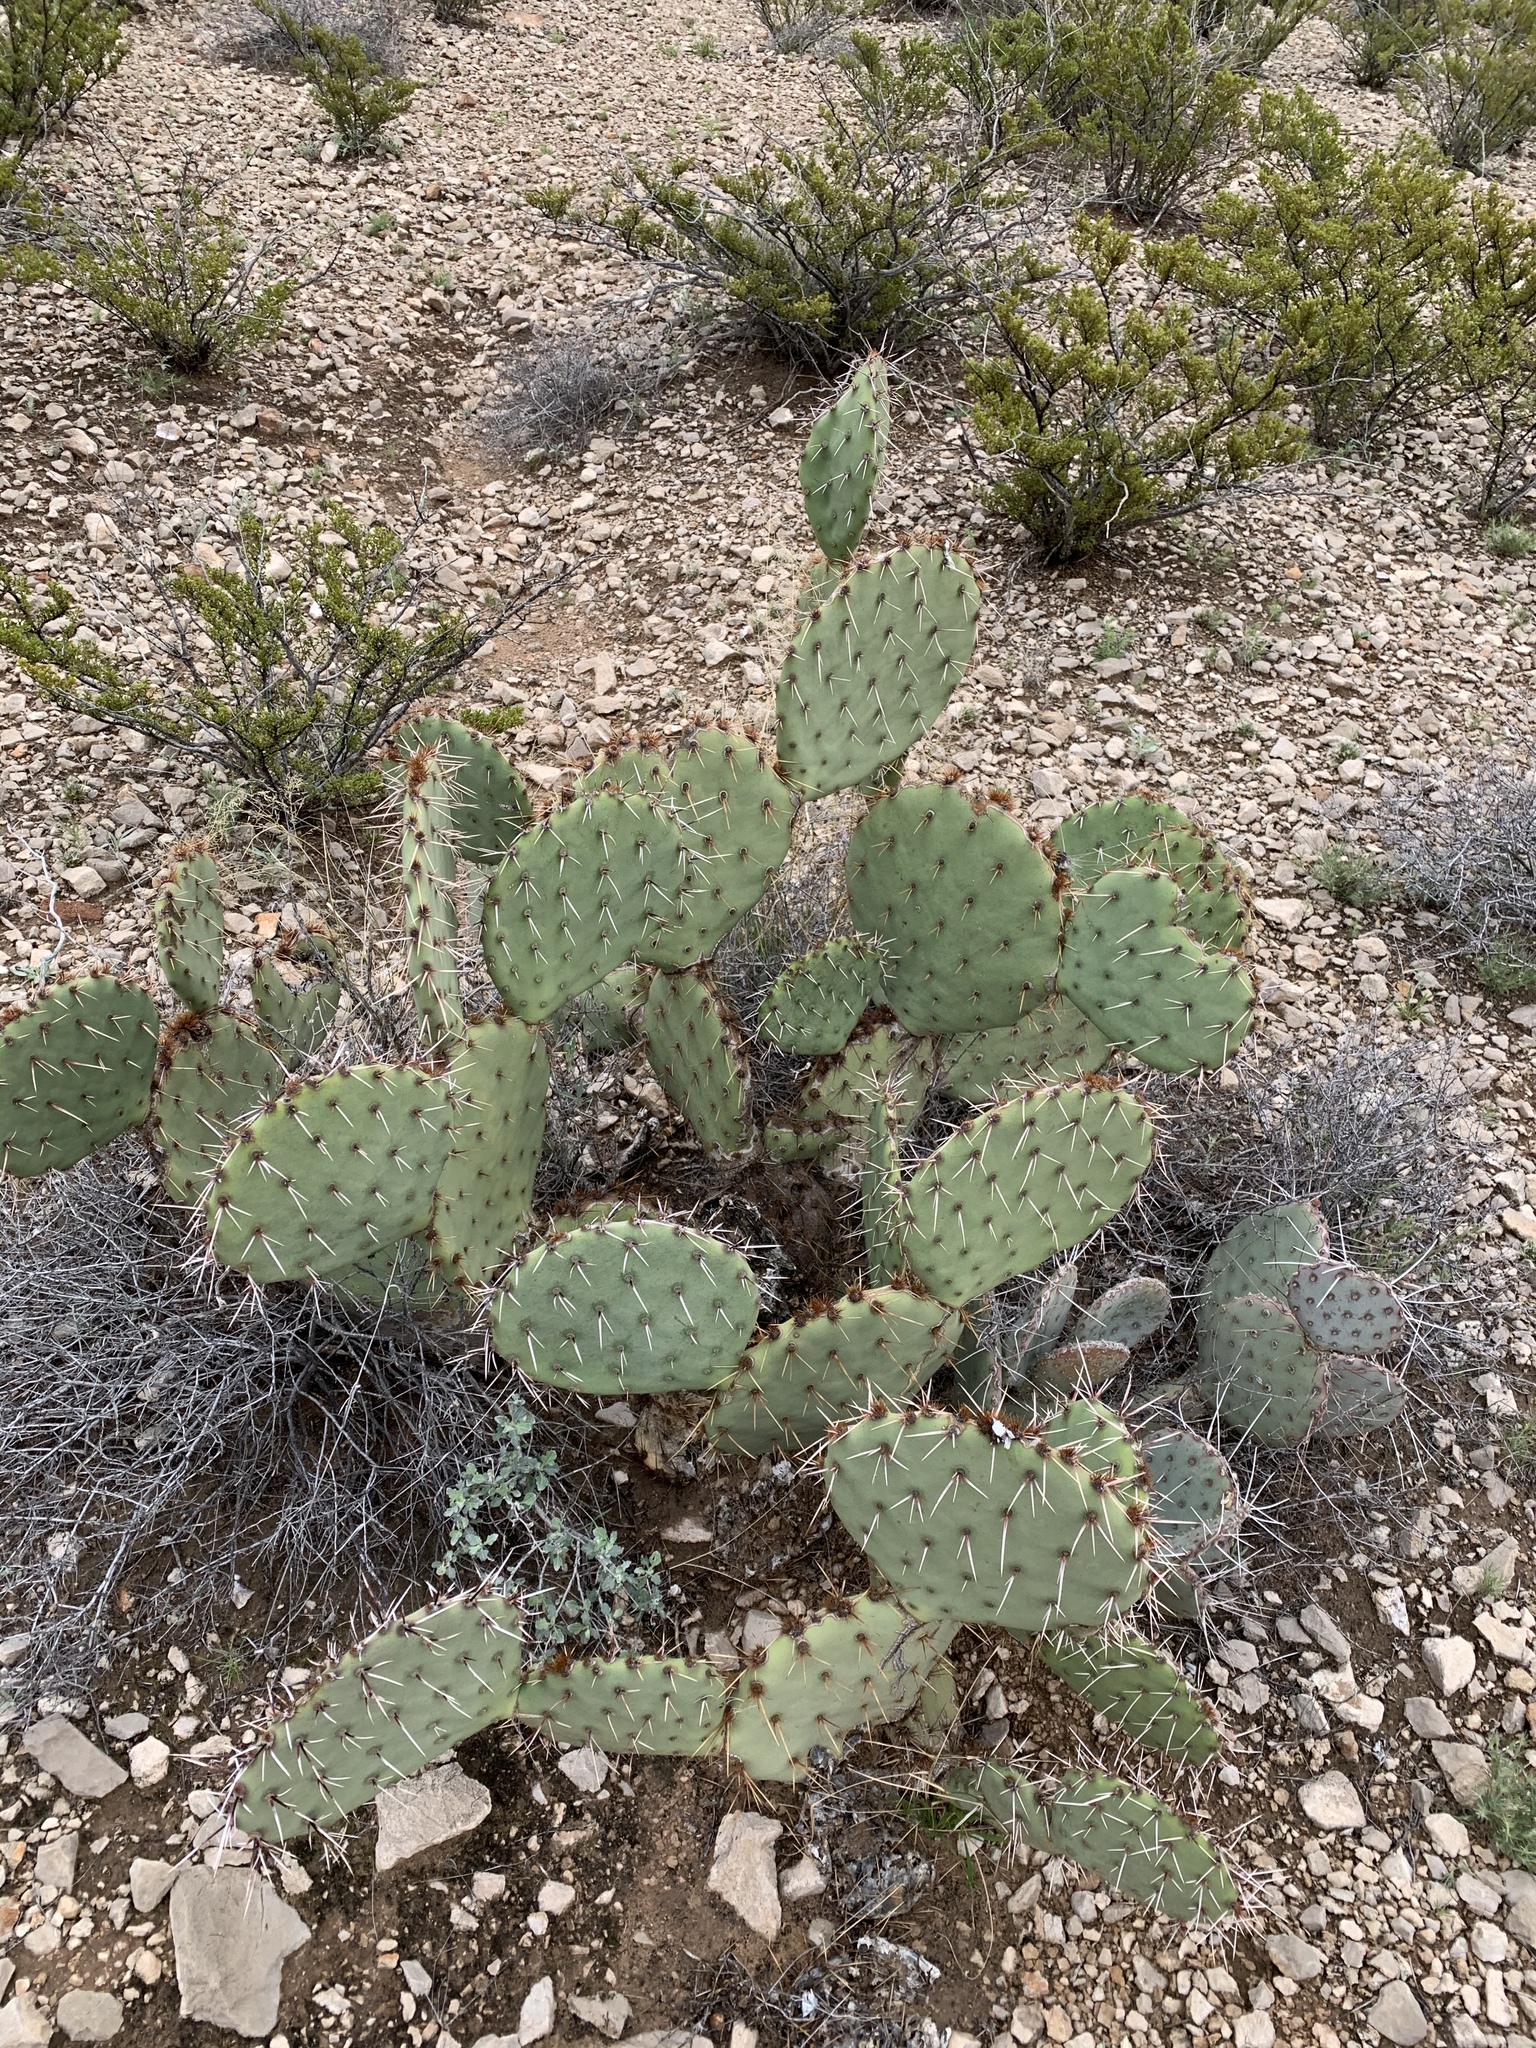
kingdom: Plantae
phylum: Tracheophyta
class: Magnoliopsida
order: Caryophyllales
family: Cactaceae
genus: Opuntia
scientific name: Opuntia engelmannii
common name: Cactus-apple
